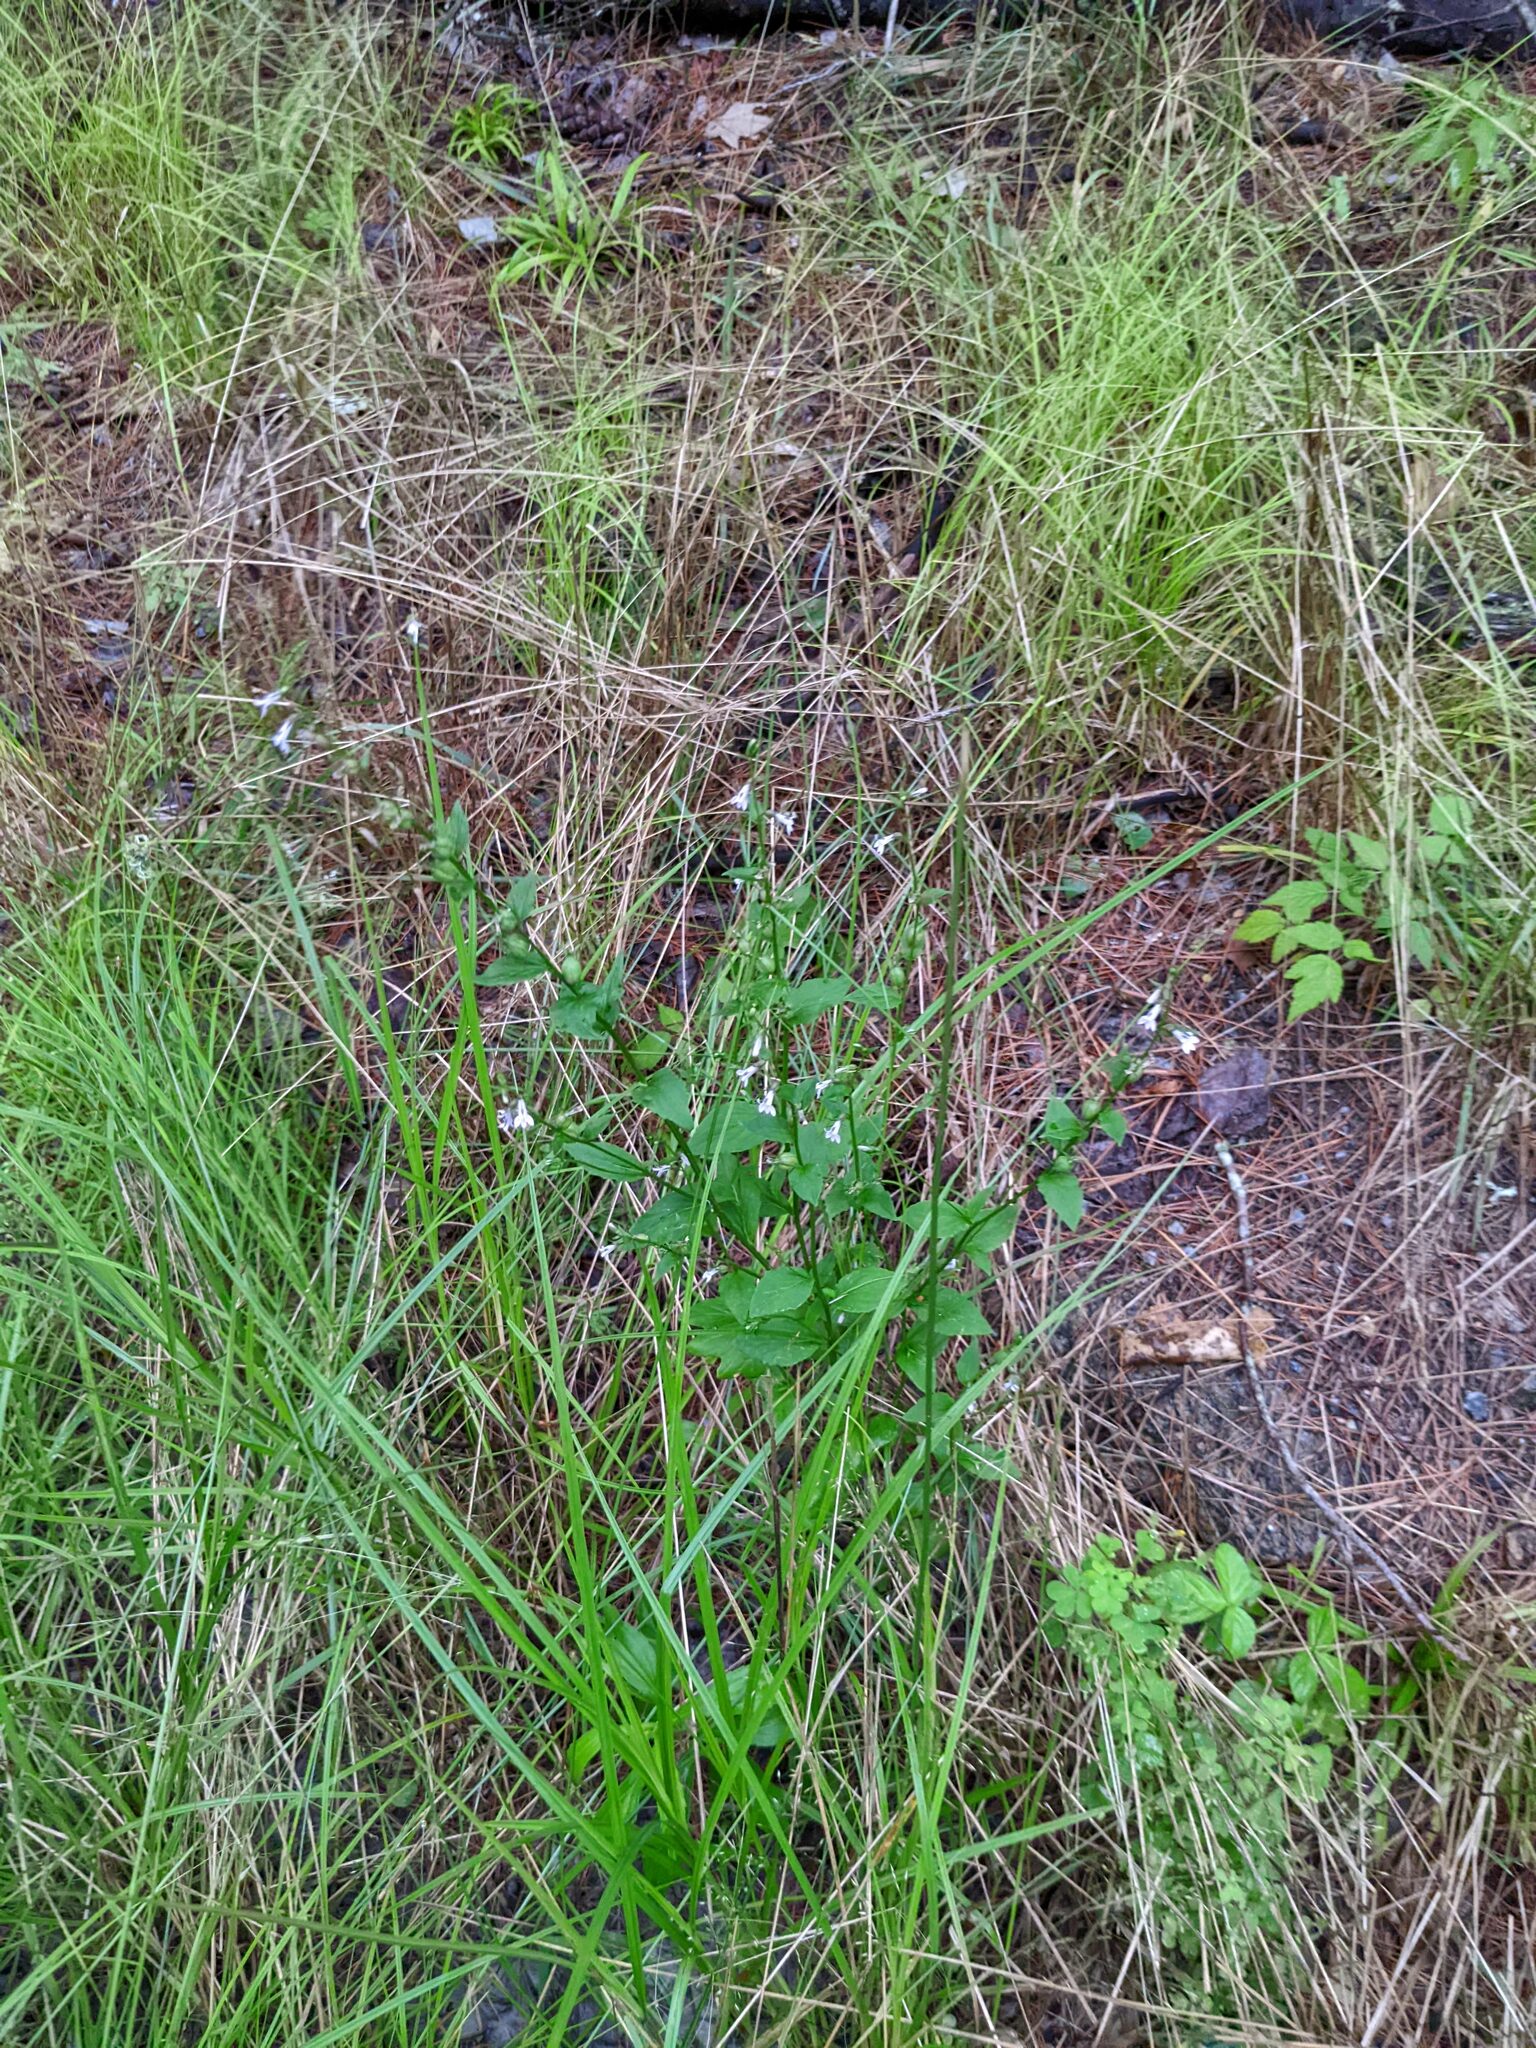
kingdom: Plantae
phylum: Tracheophyta
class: Magnoliopsida
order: Asterales
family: Campanulaceae
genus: Lobelia
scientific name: Lobelia inflata
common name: Indian tobacco
